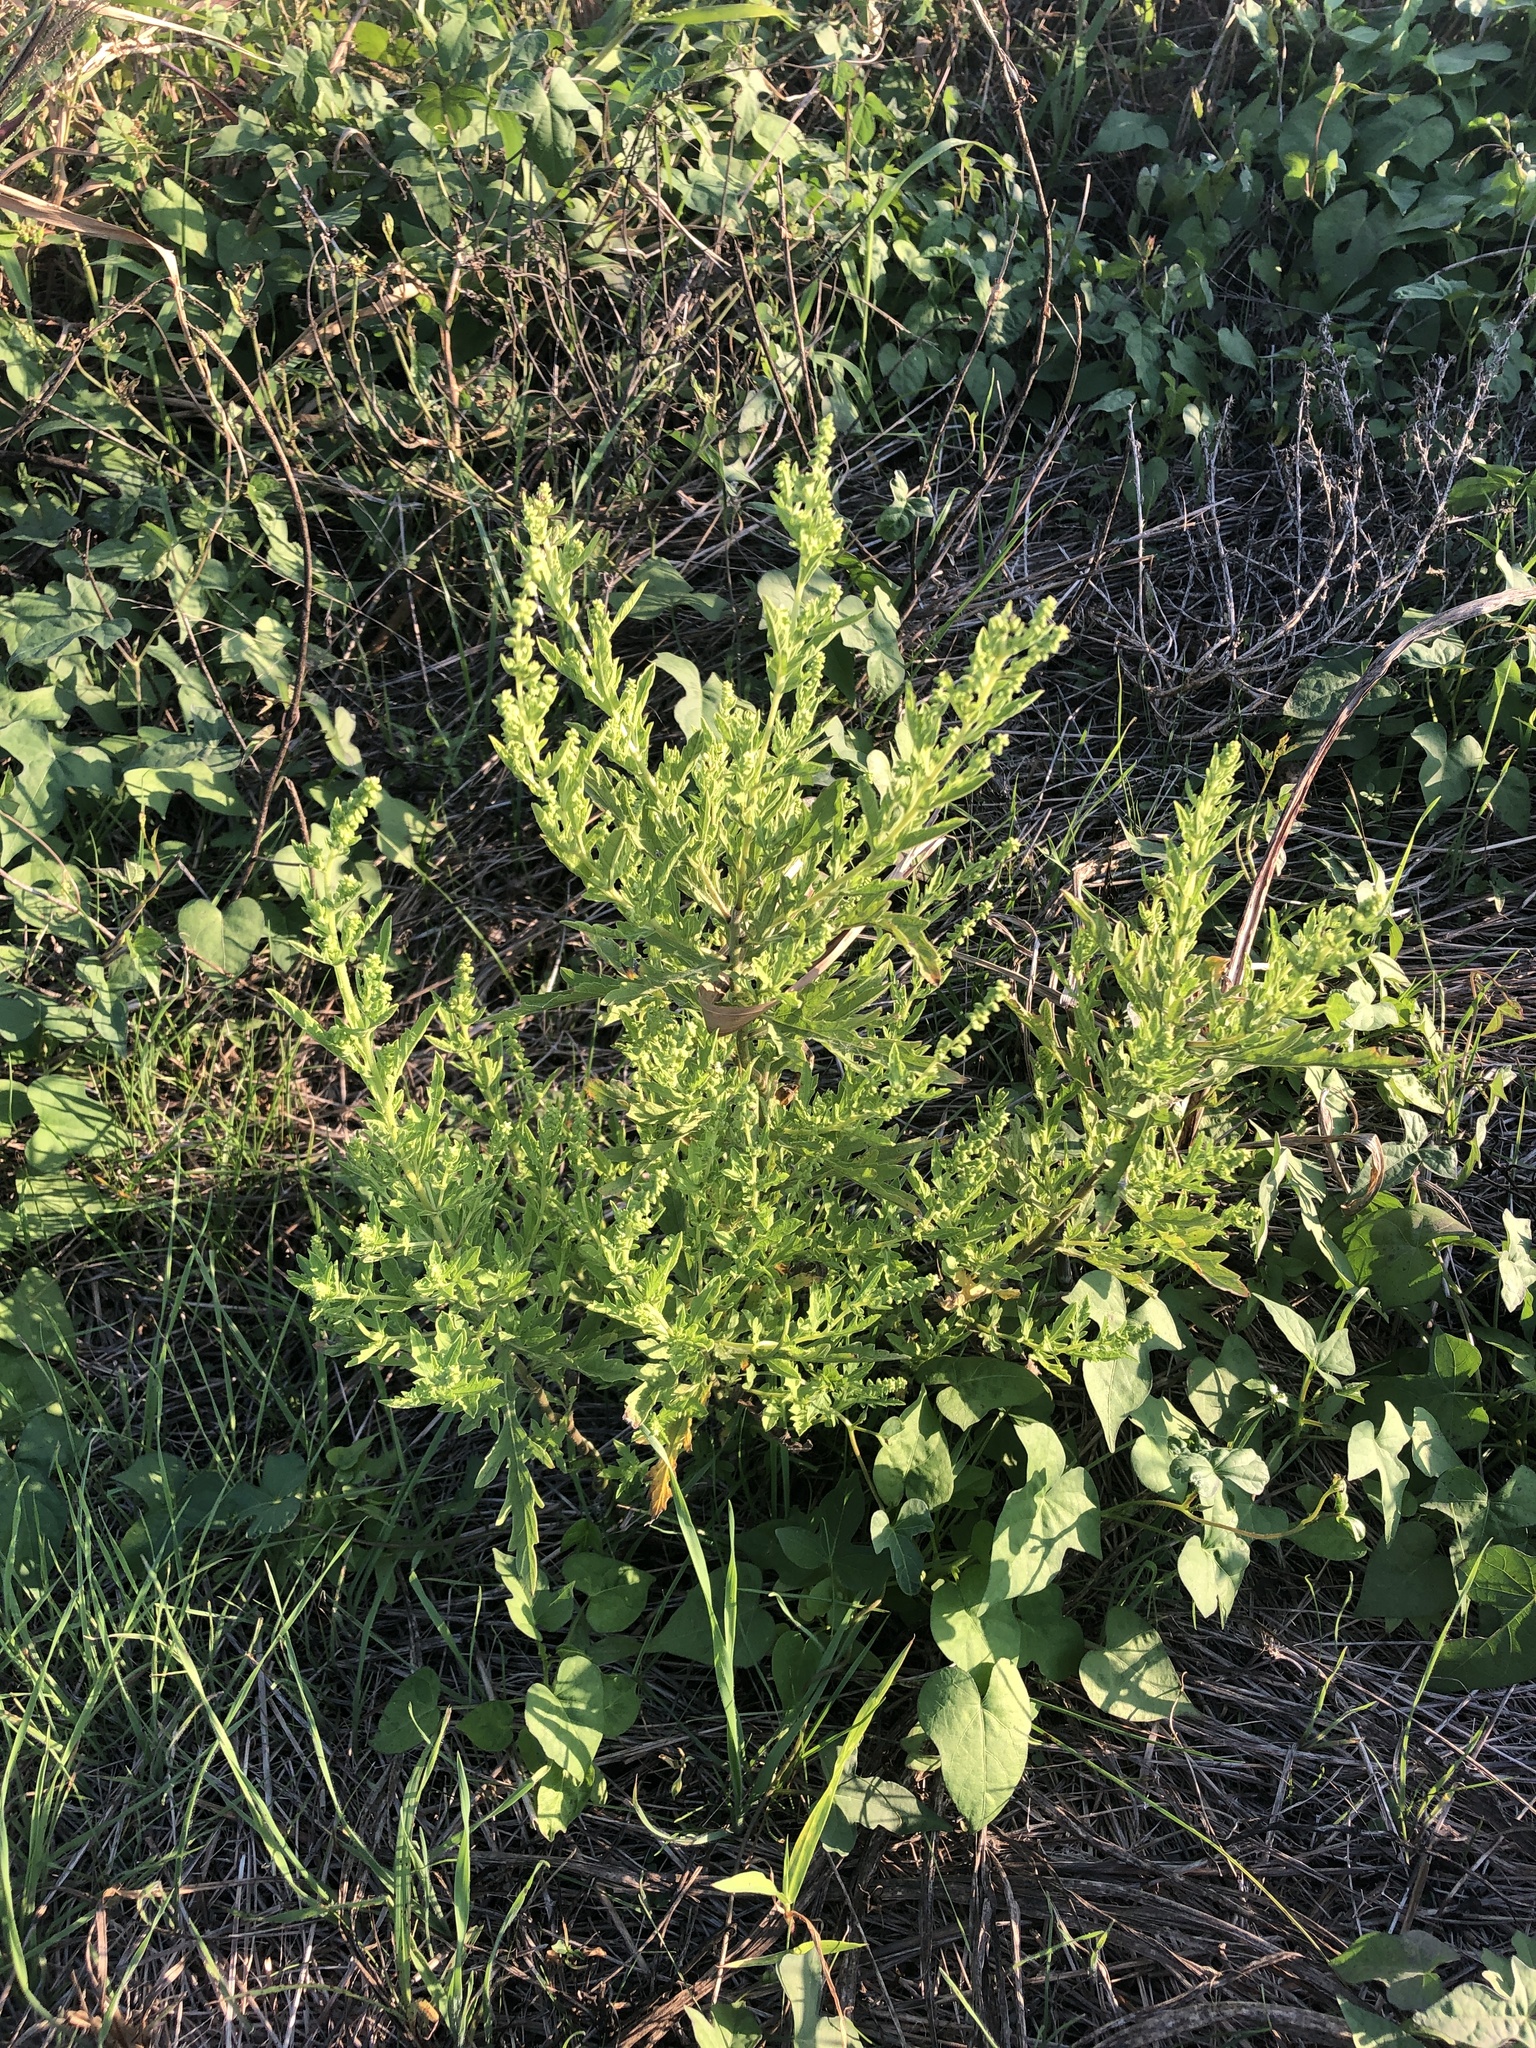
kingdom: Plantae
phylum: Tracheophyta
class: Magnoliopsida
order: Asterales
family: Asteraceae
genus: Ambrosia
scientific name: Ambrosia psilostachya
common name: Perennial ragweed
